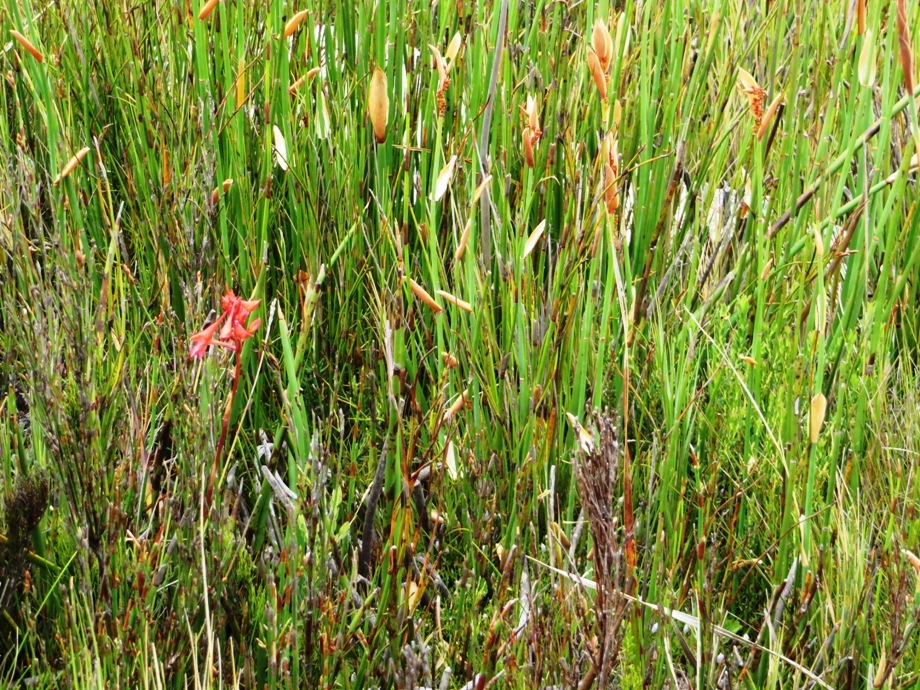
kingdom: Plantae
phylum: Tracheophyta
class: Liliopsida
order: Asparagales
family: Orchidaceae
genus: Disa
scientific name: Disa ferruginea
